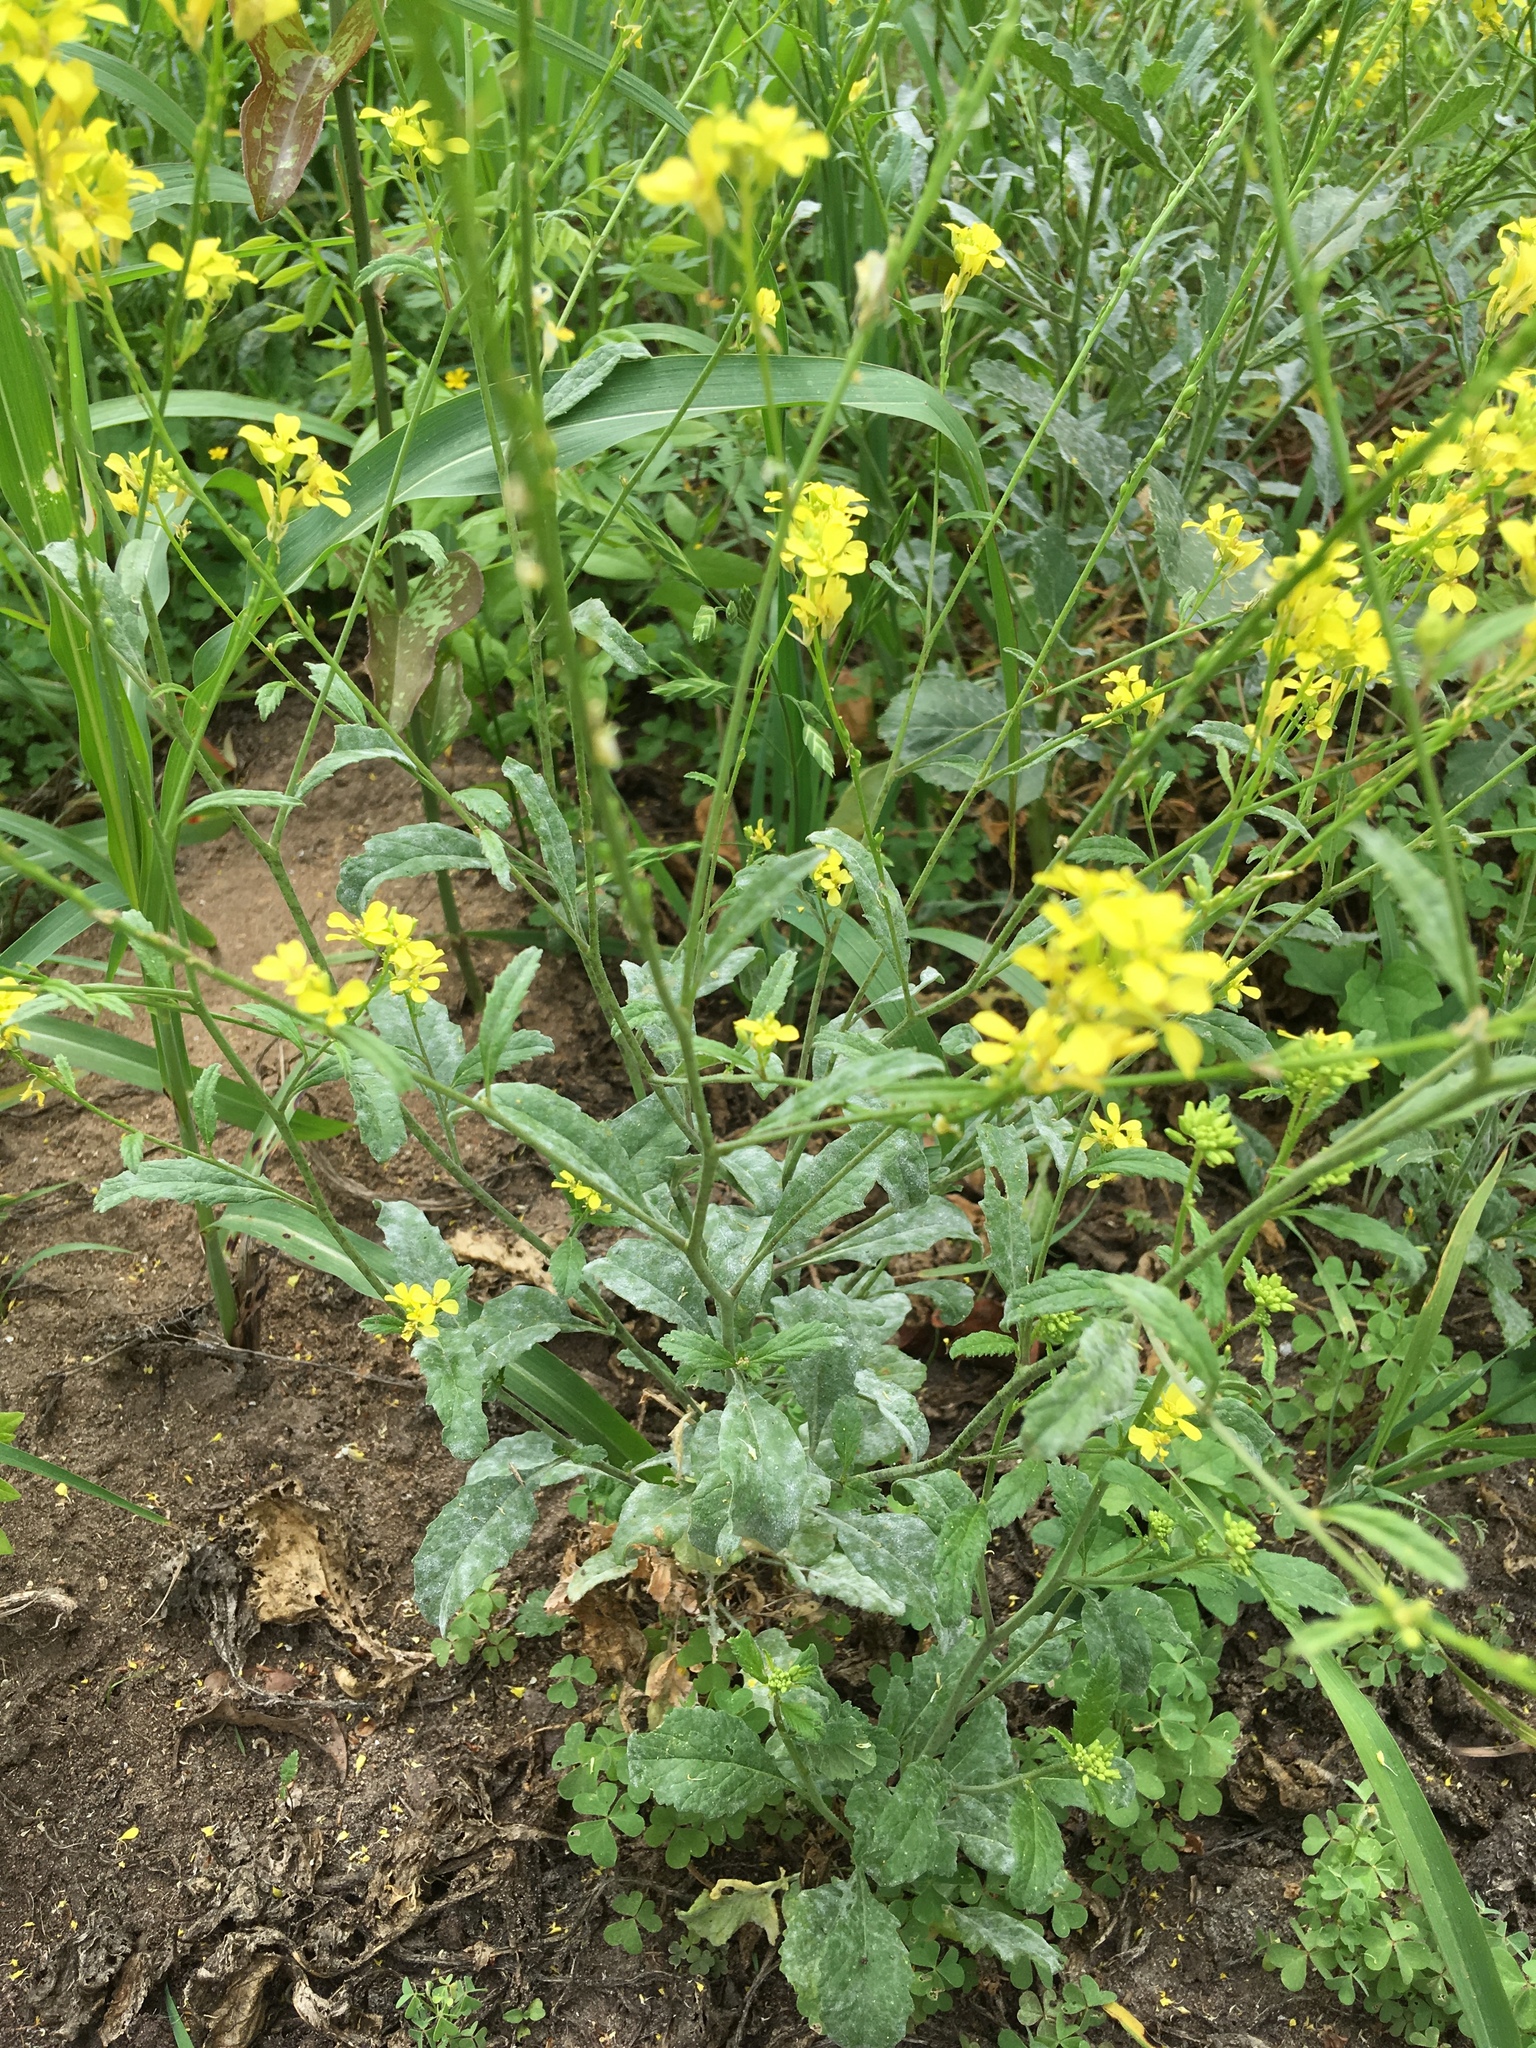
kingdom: Plantae
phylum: Tracheophyta
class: Magnoliopsida
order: Brassicales
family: Brassicaceae
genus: Rapistrum
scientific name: Rapistrum rugosum
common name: Annual bastardcabbage
